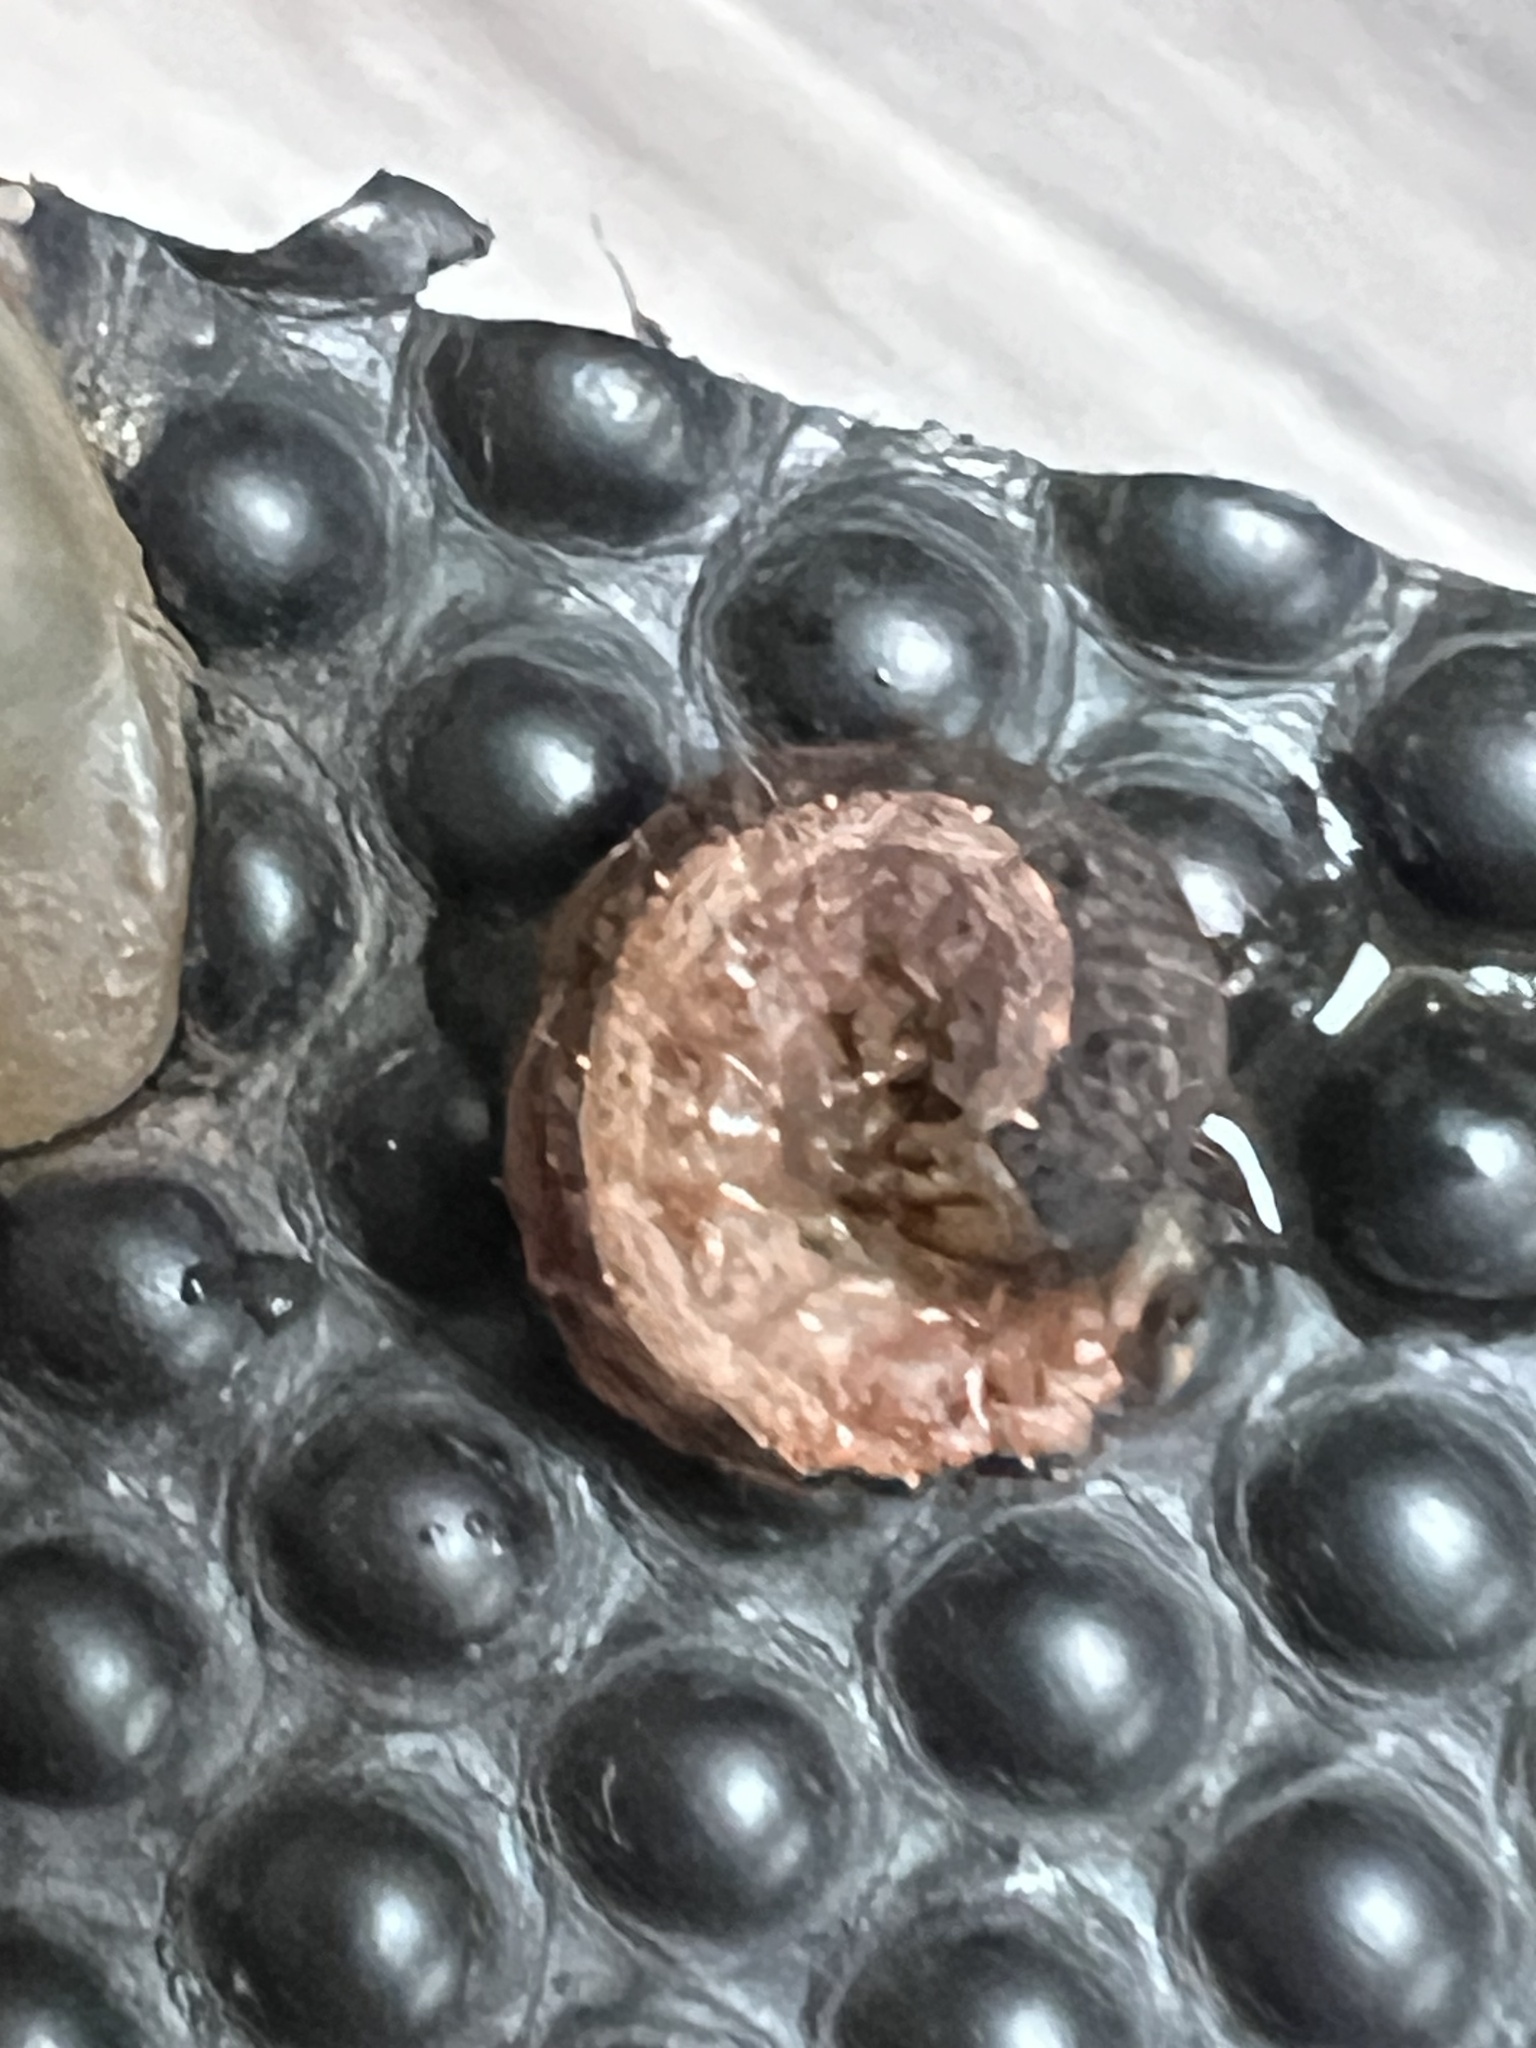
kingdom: Animalia
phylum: Arthropoda
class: Insecta
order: Lepidoptera
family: Noctuidae
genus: Noctua
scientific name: Noctua pronuba
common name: Large yellow underwing
